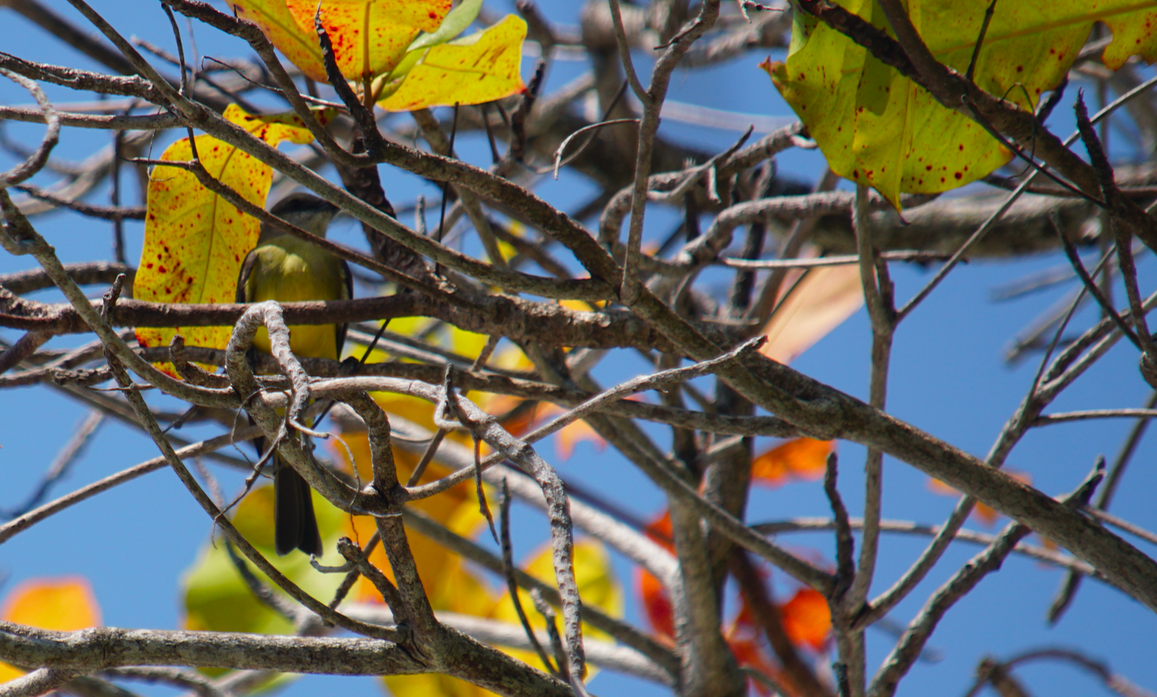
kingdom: Animalia
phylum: Chordata
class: Aves
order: Passeriformes
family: Tyrannidae
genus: Tyrannus
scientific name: Tyrannus melancholicus
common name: Tropical kingbird
